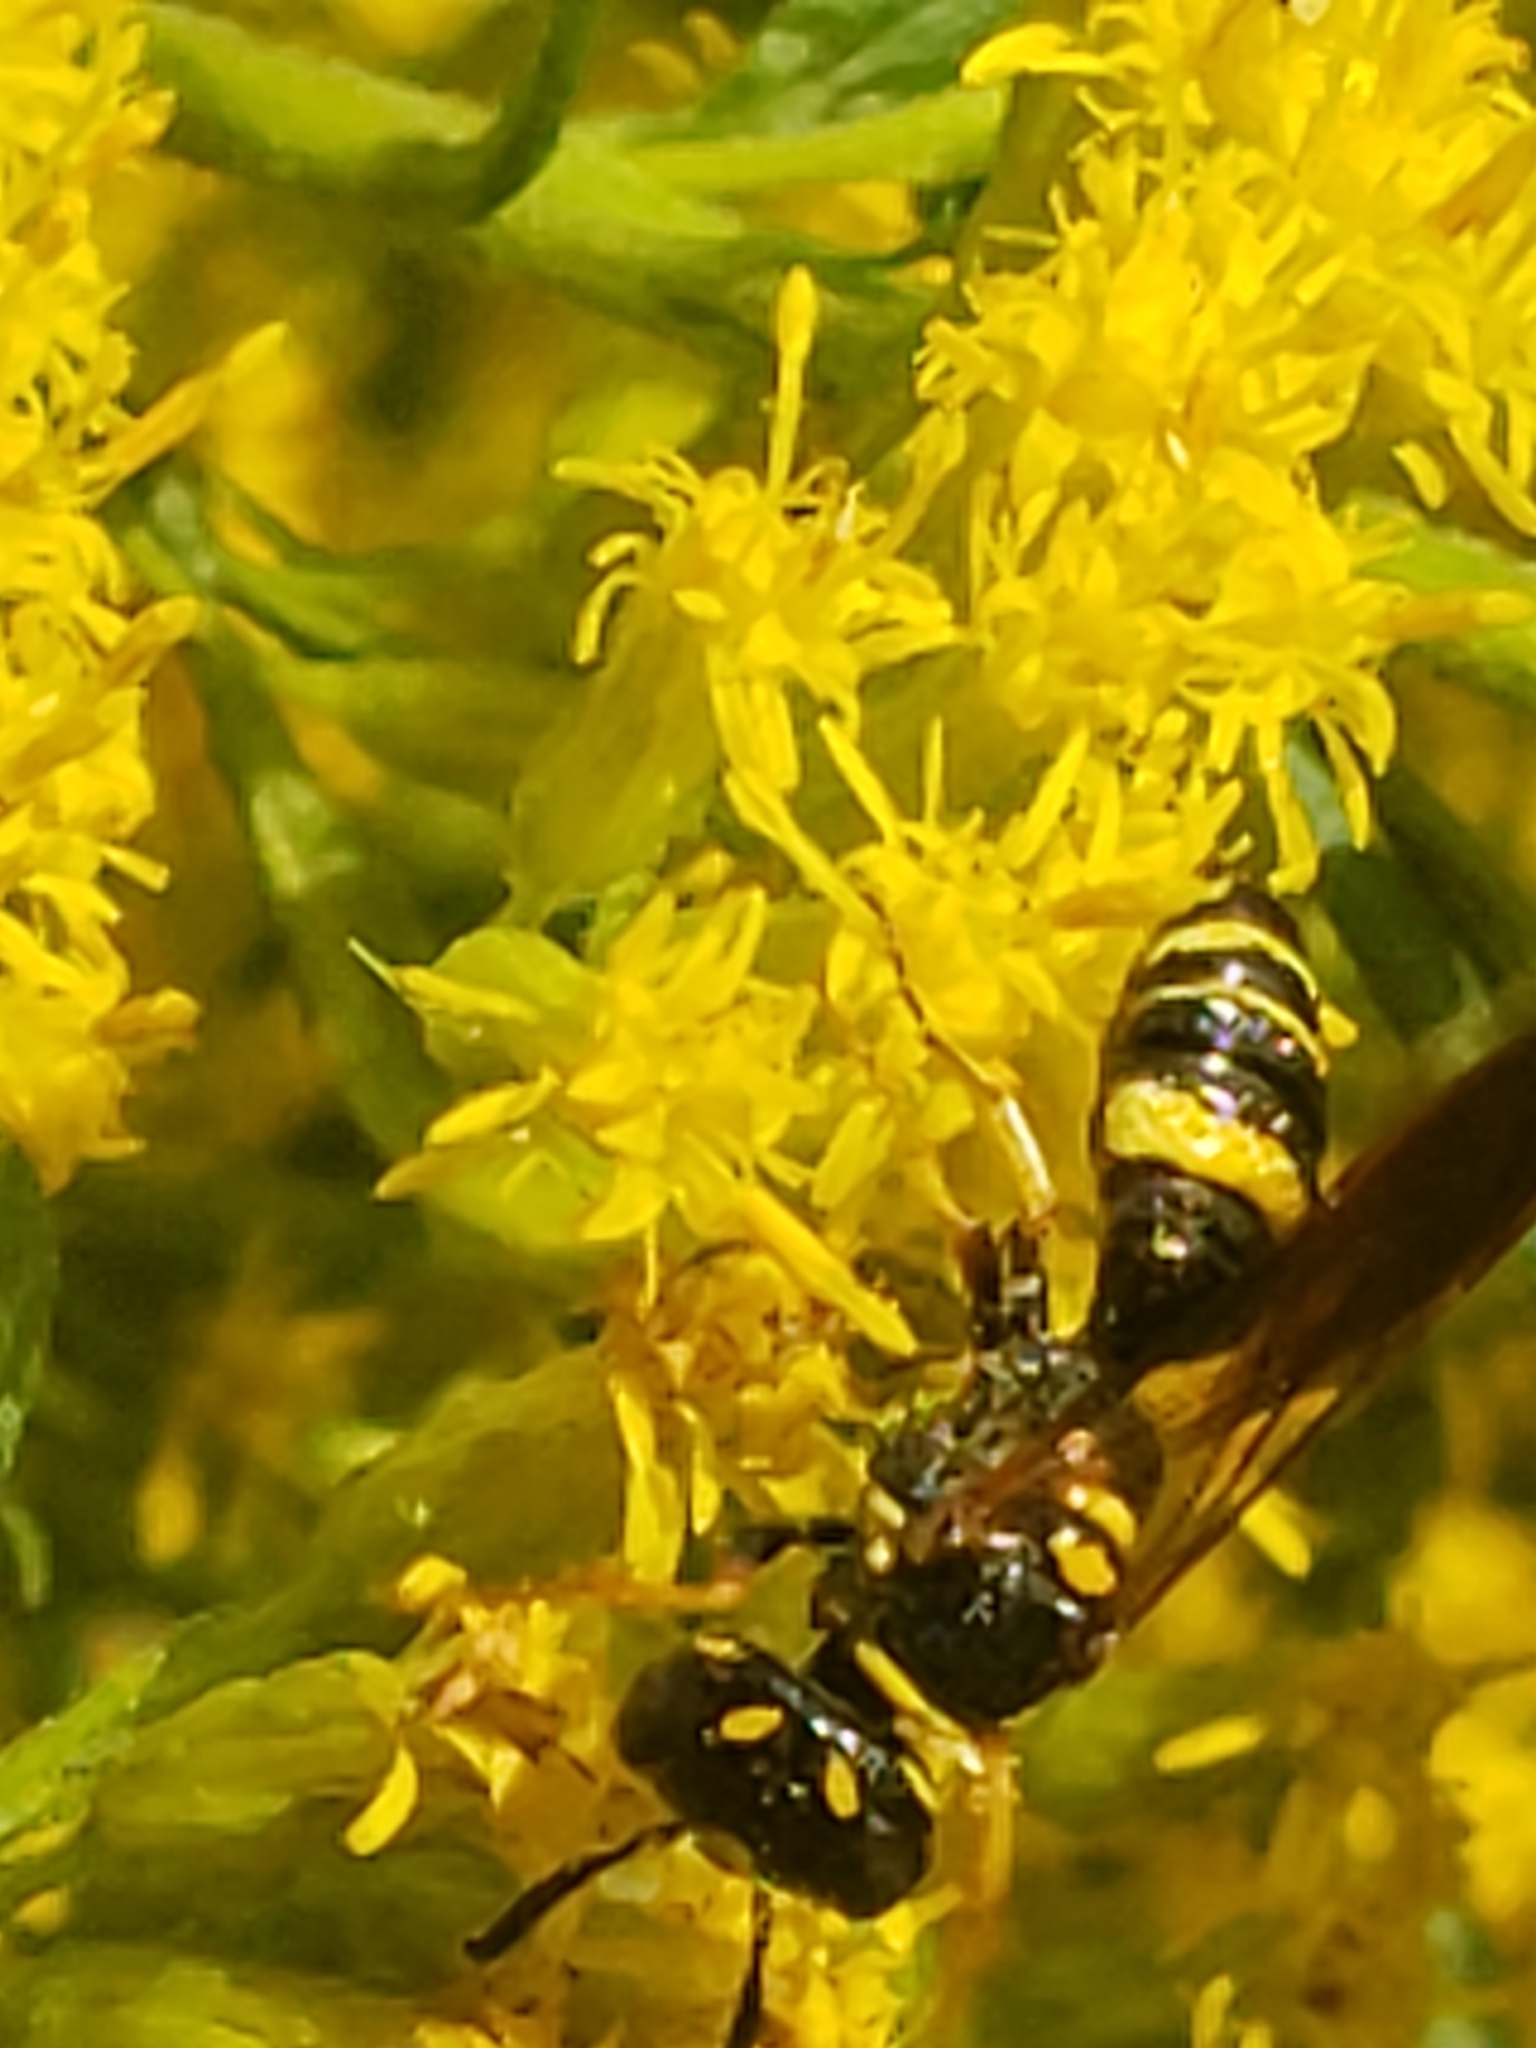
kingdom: Animalia
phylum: Arthropoda
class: Insecta
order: Hymenoptera
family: Crabronidae
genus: Philanthus
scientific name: Philanthus gibbosus
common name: Humped beewolf
